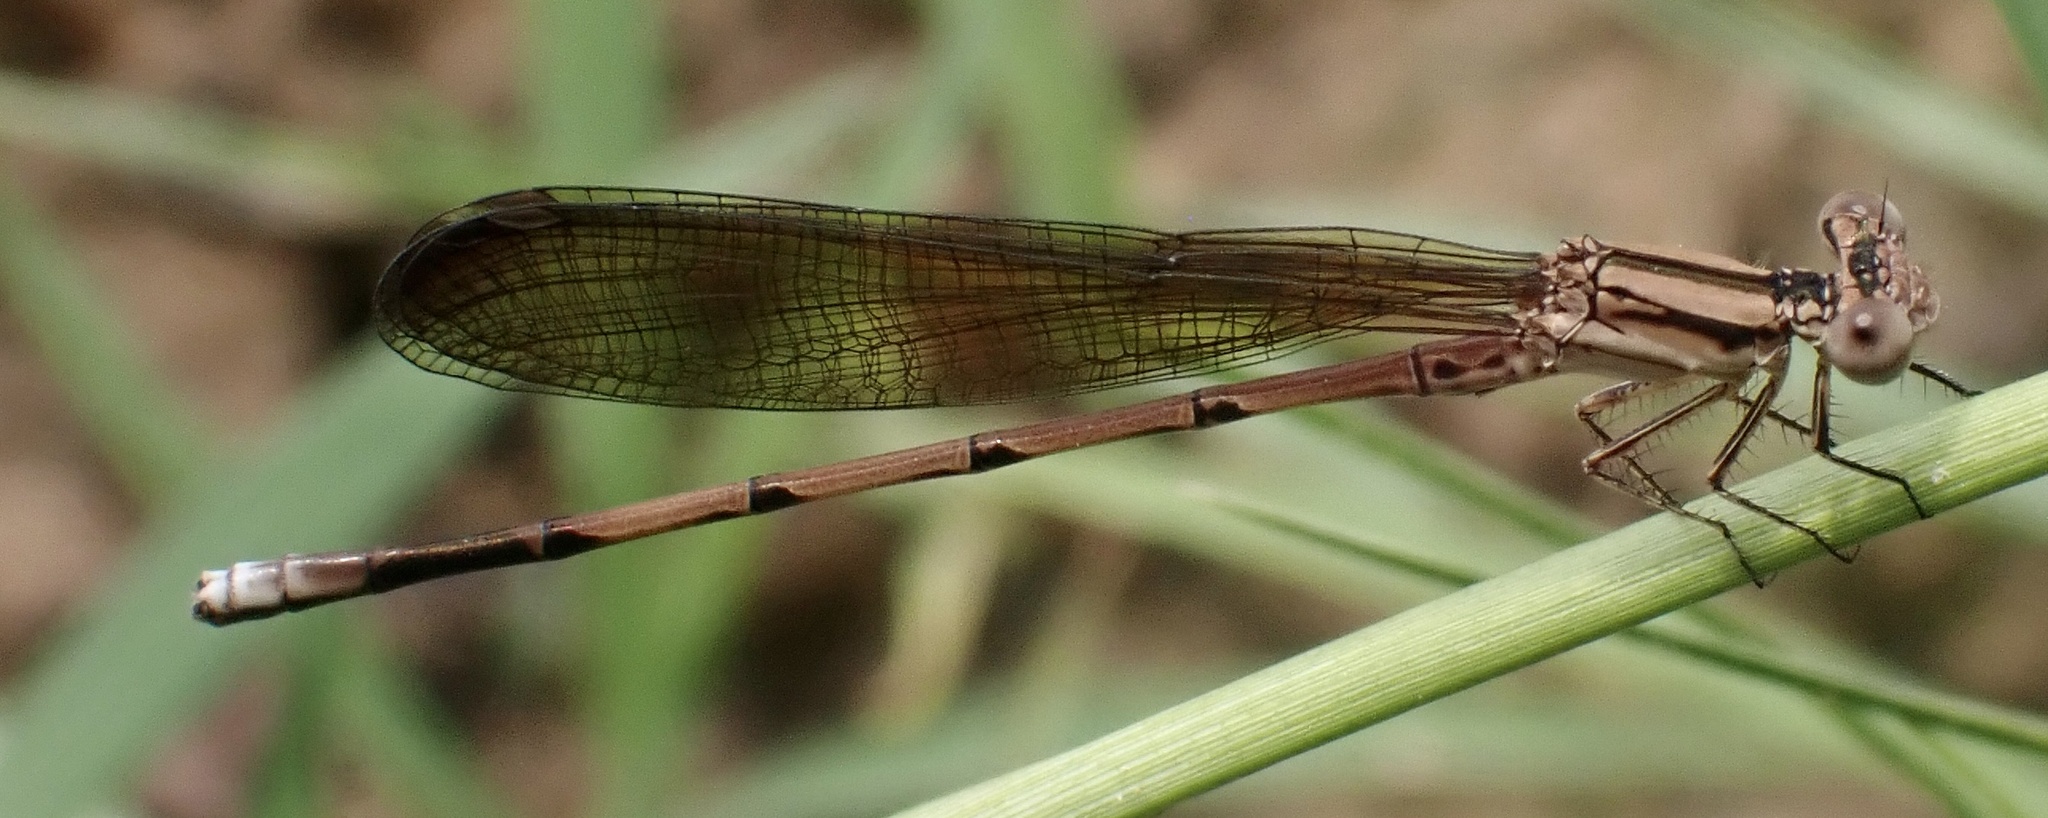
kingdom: Animalia
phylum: Arthropoda
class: Insecta
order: Odonata
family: Coenagrionidae
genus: Argia
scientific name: Argia fumipennis
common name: Variable dancer
